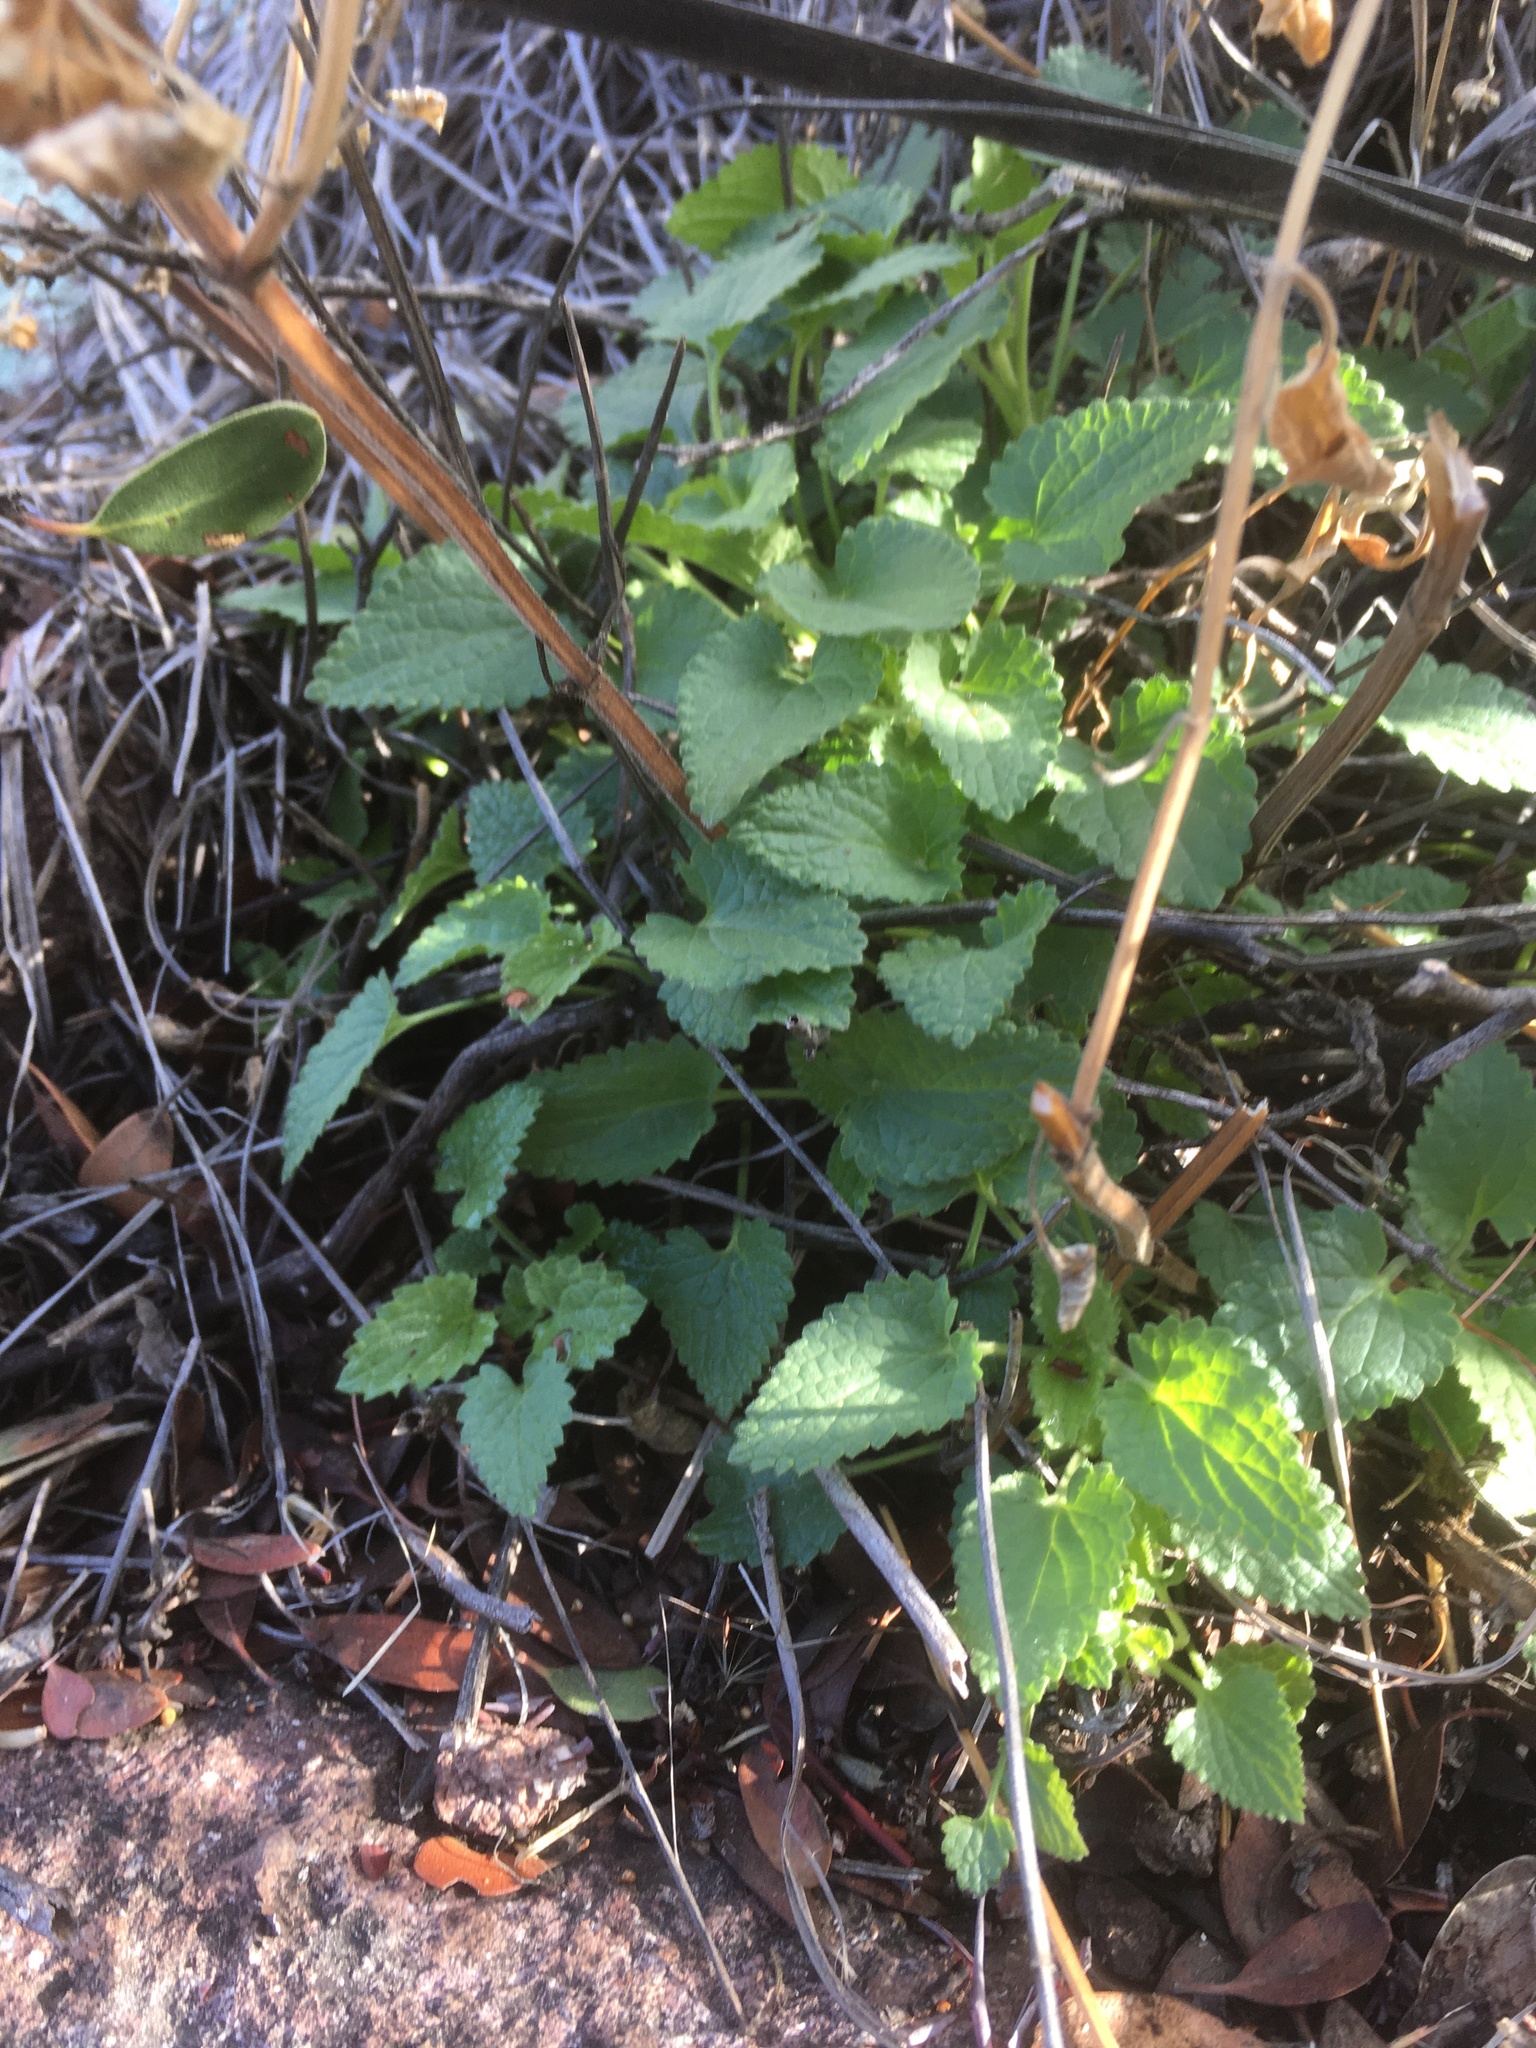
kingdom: Plantae
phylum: Tracheophyta
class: Magnoliopsida
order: Lamiales
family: Lamiaceae
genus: Stachys
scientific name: Stachys coccinea
